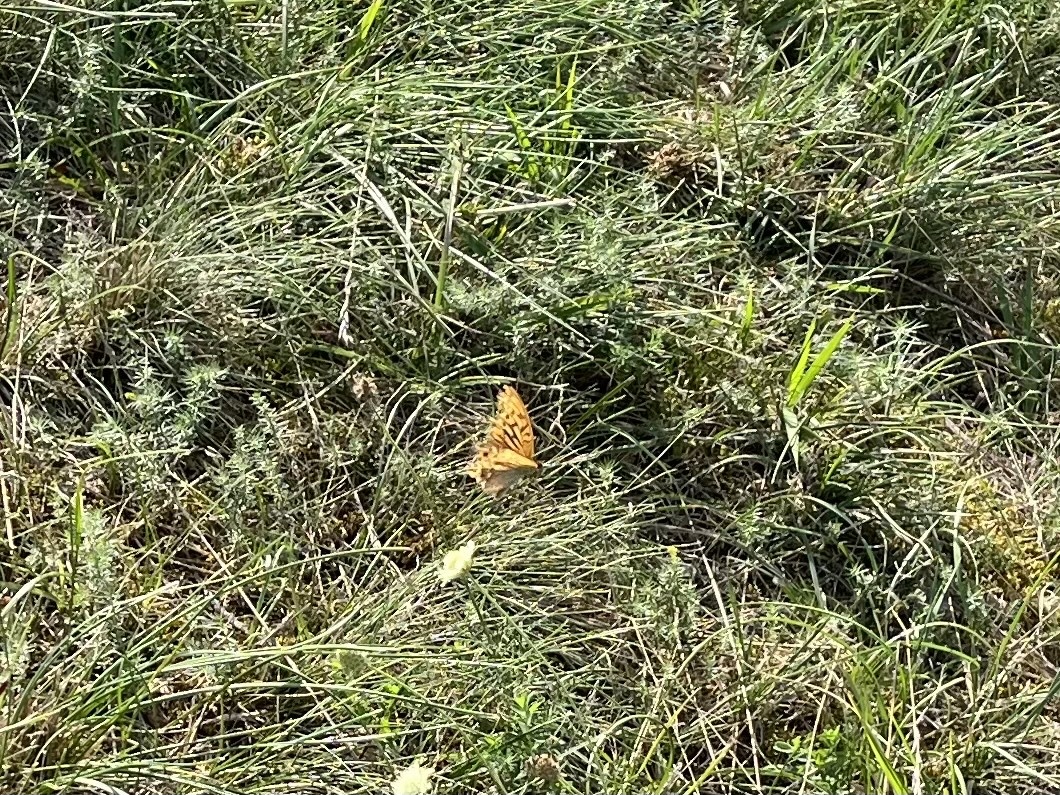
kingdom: Animalia
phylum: Arthropoda
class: Insecta
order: Lepidoptera
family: Nymphalidae
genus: Argynnis
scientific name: Argynnis paphia
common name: Silver-washed fritillary
